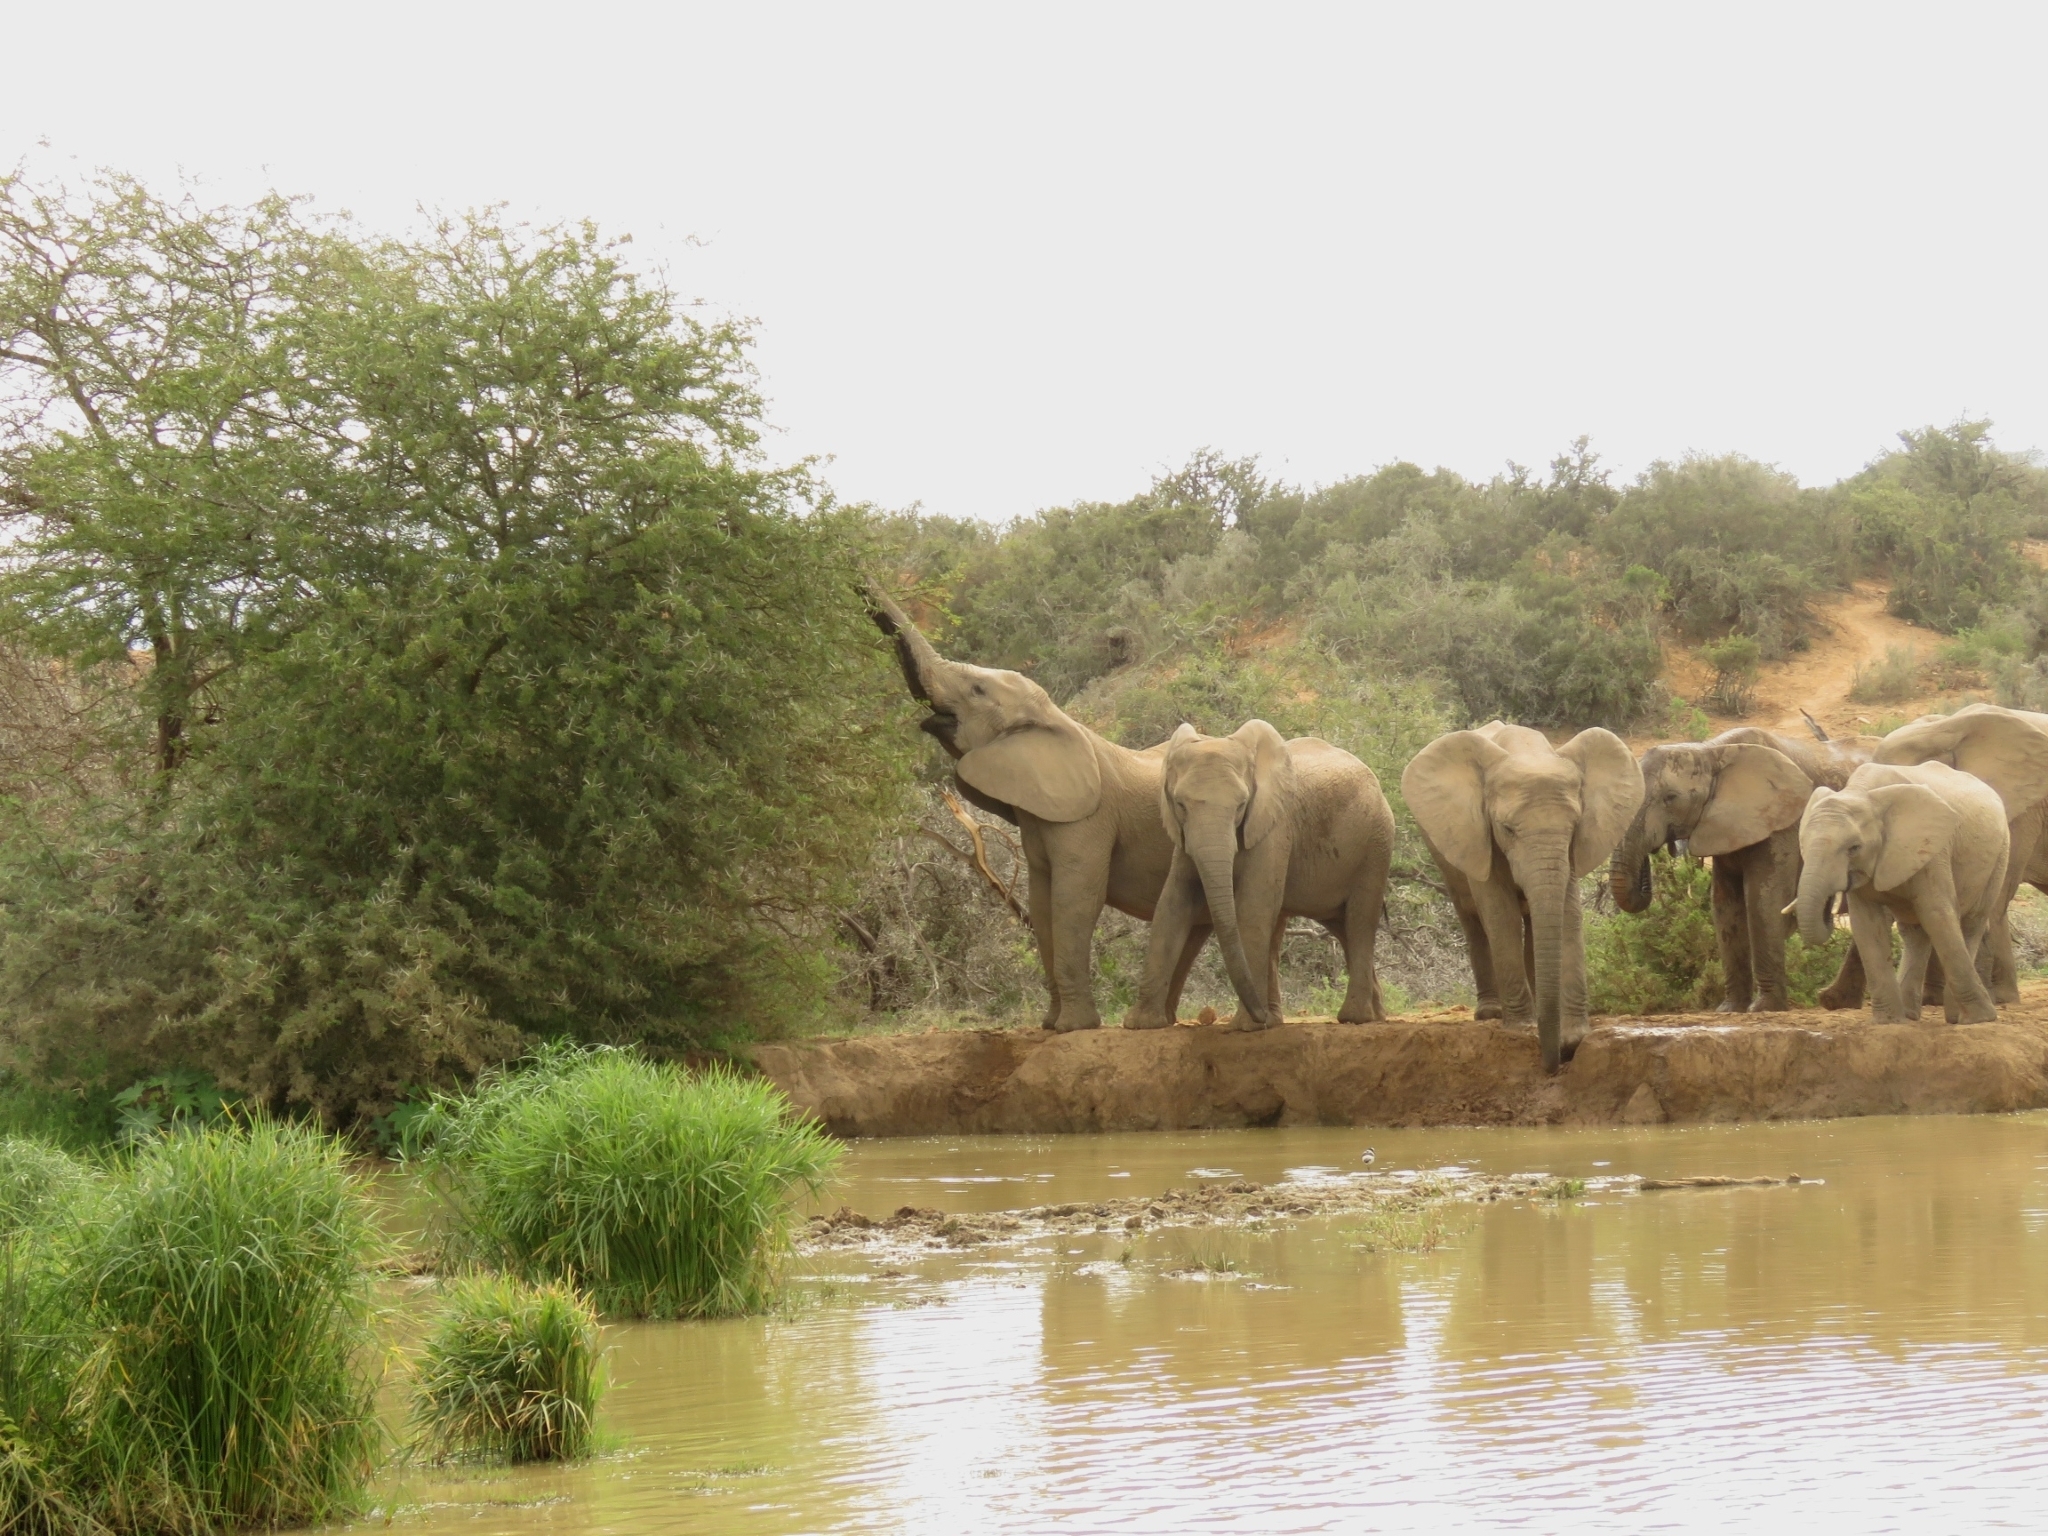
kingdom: Animalia
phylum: Chordata
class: Mammalia
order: Proboscidea
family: Elephantidae
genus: Loxodonta
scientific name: Loxodonta africana
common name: African elephant
